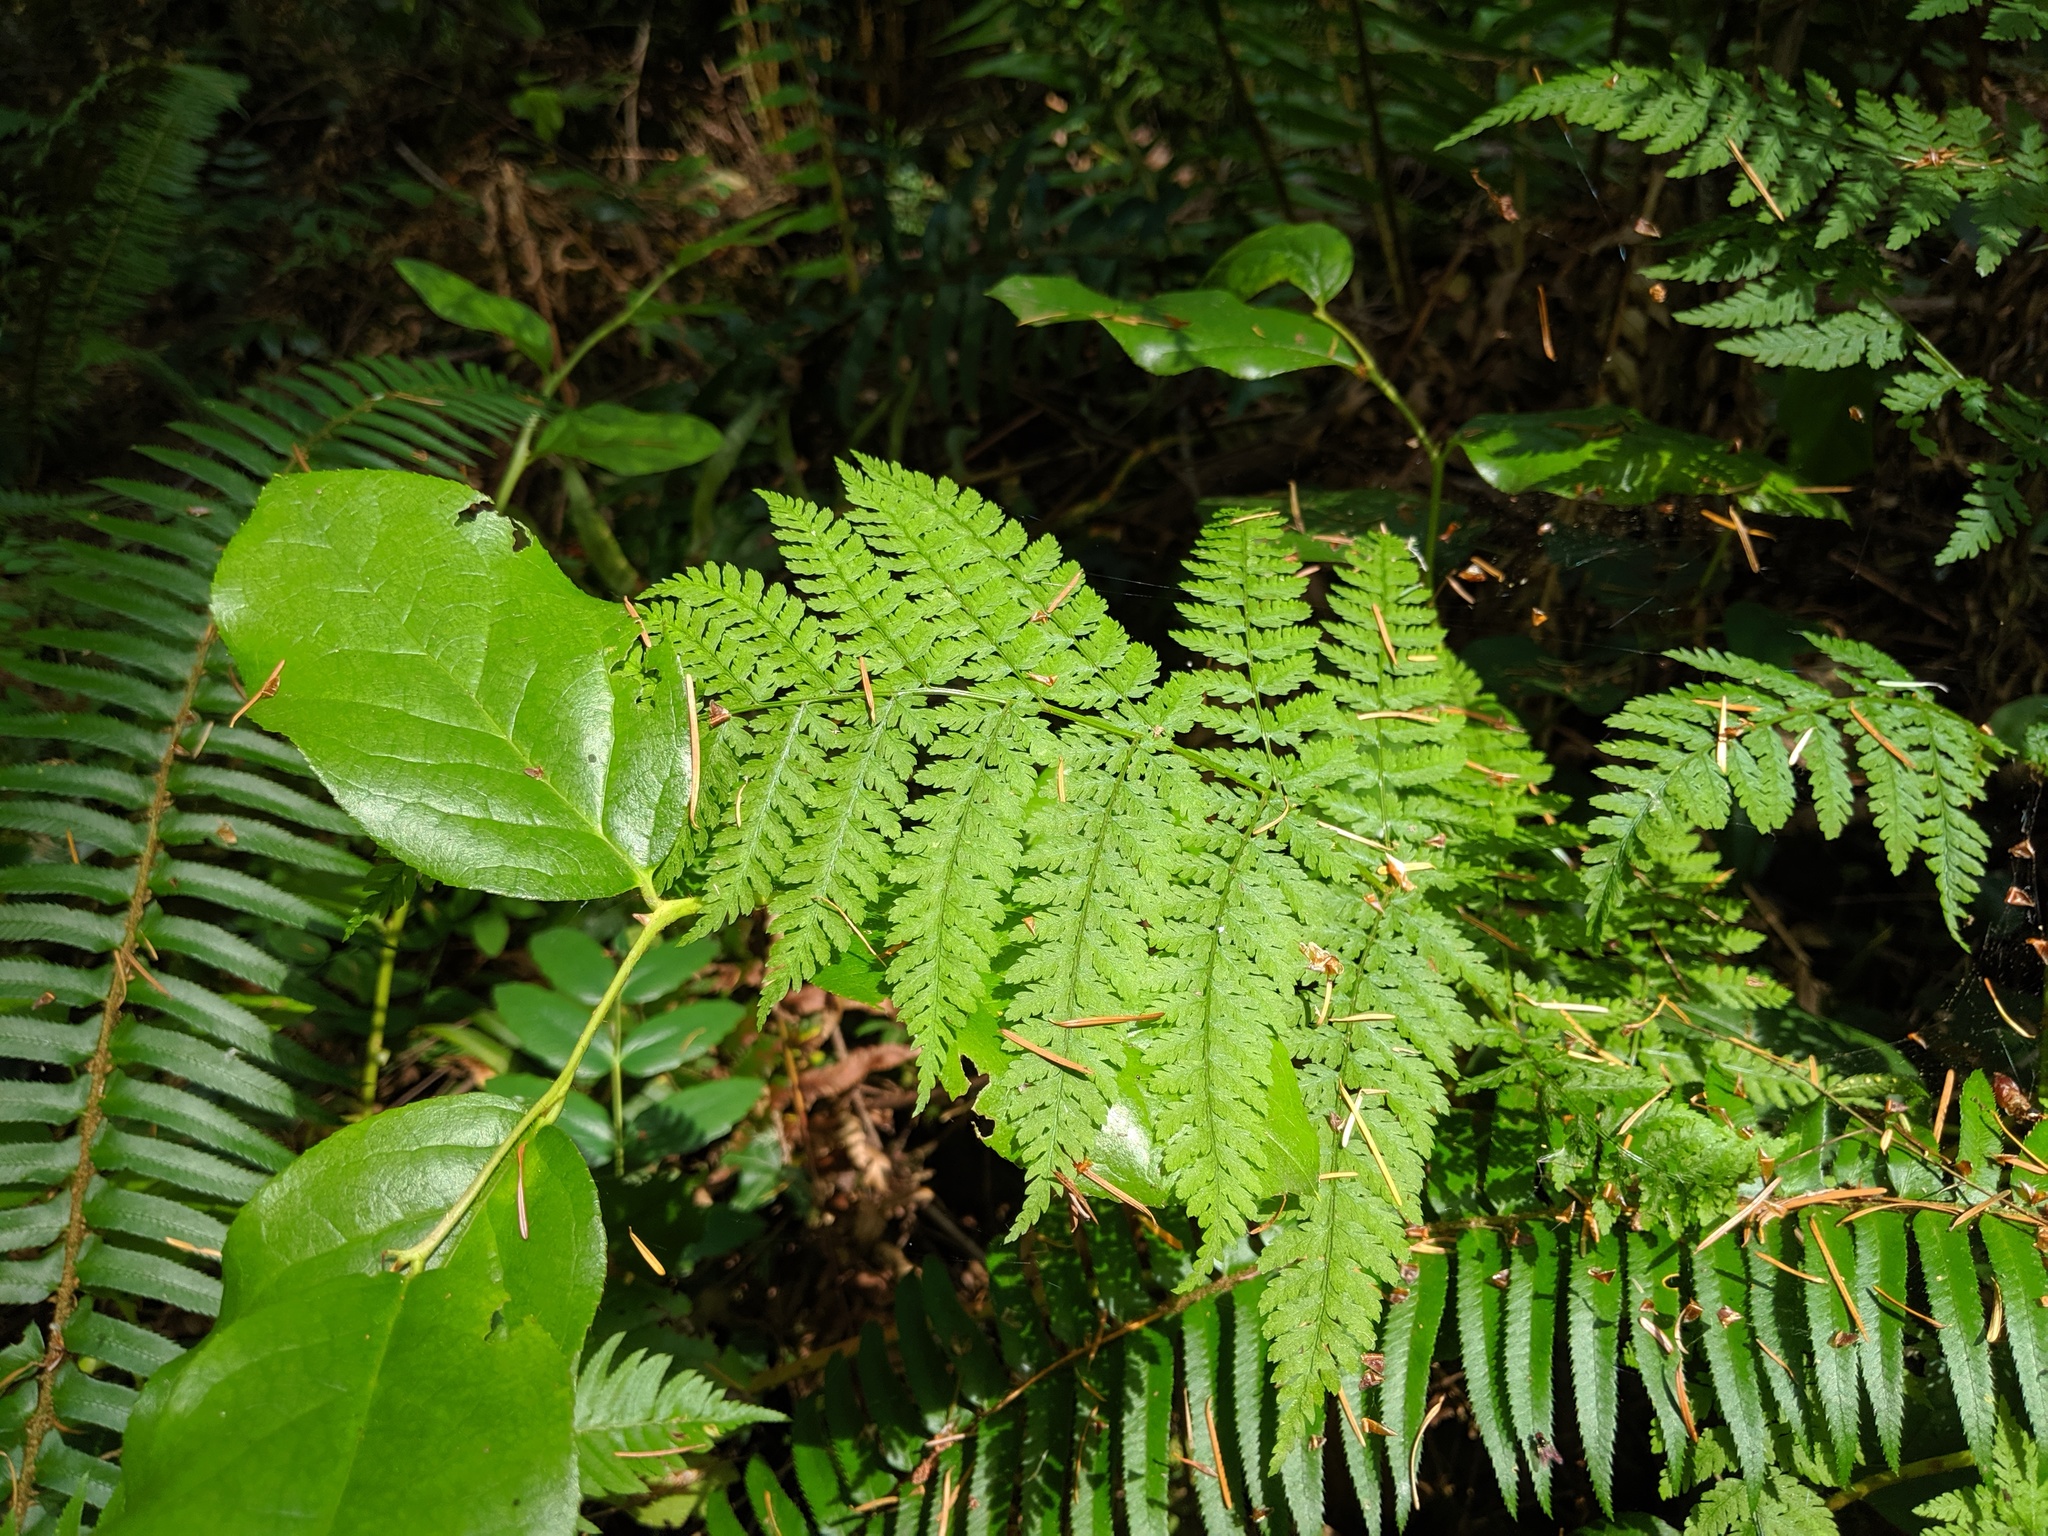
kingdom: Plantae
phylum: Tracheophyta
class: Polypodiopsida
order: Polypodiales
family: Dryopteridaceae
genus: Dryopteris
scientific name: Dryopteris expansa
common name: Northern buckler fern
